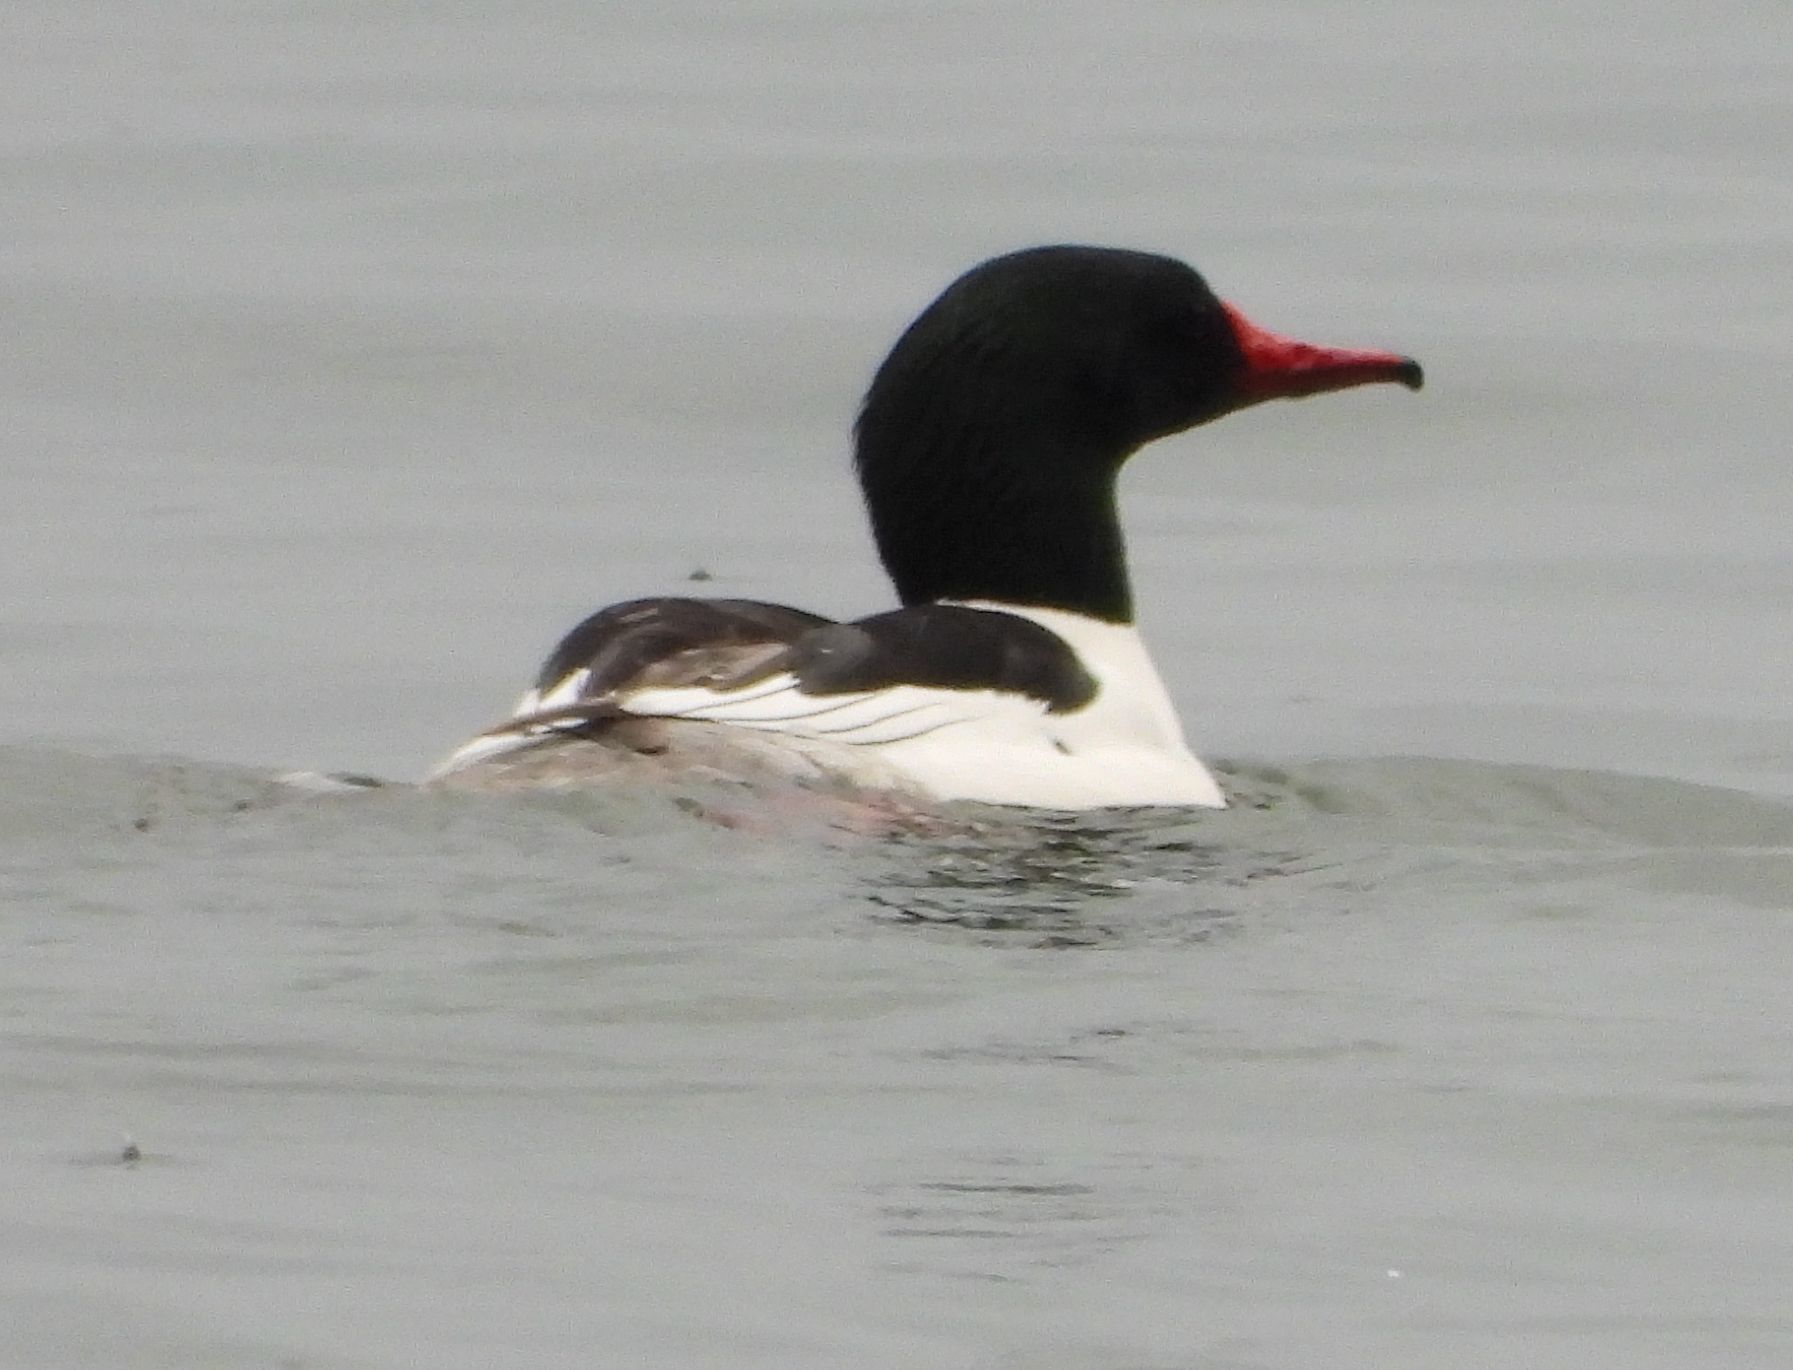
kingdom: Animalia
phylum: Chordata
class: Aves
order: Anseriformes
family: Anatidae
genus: Mergus
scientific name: Mergus merganser
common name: Common merganser
